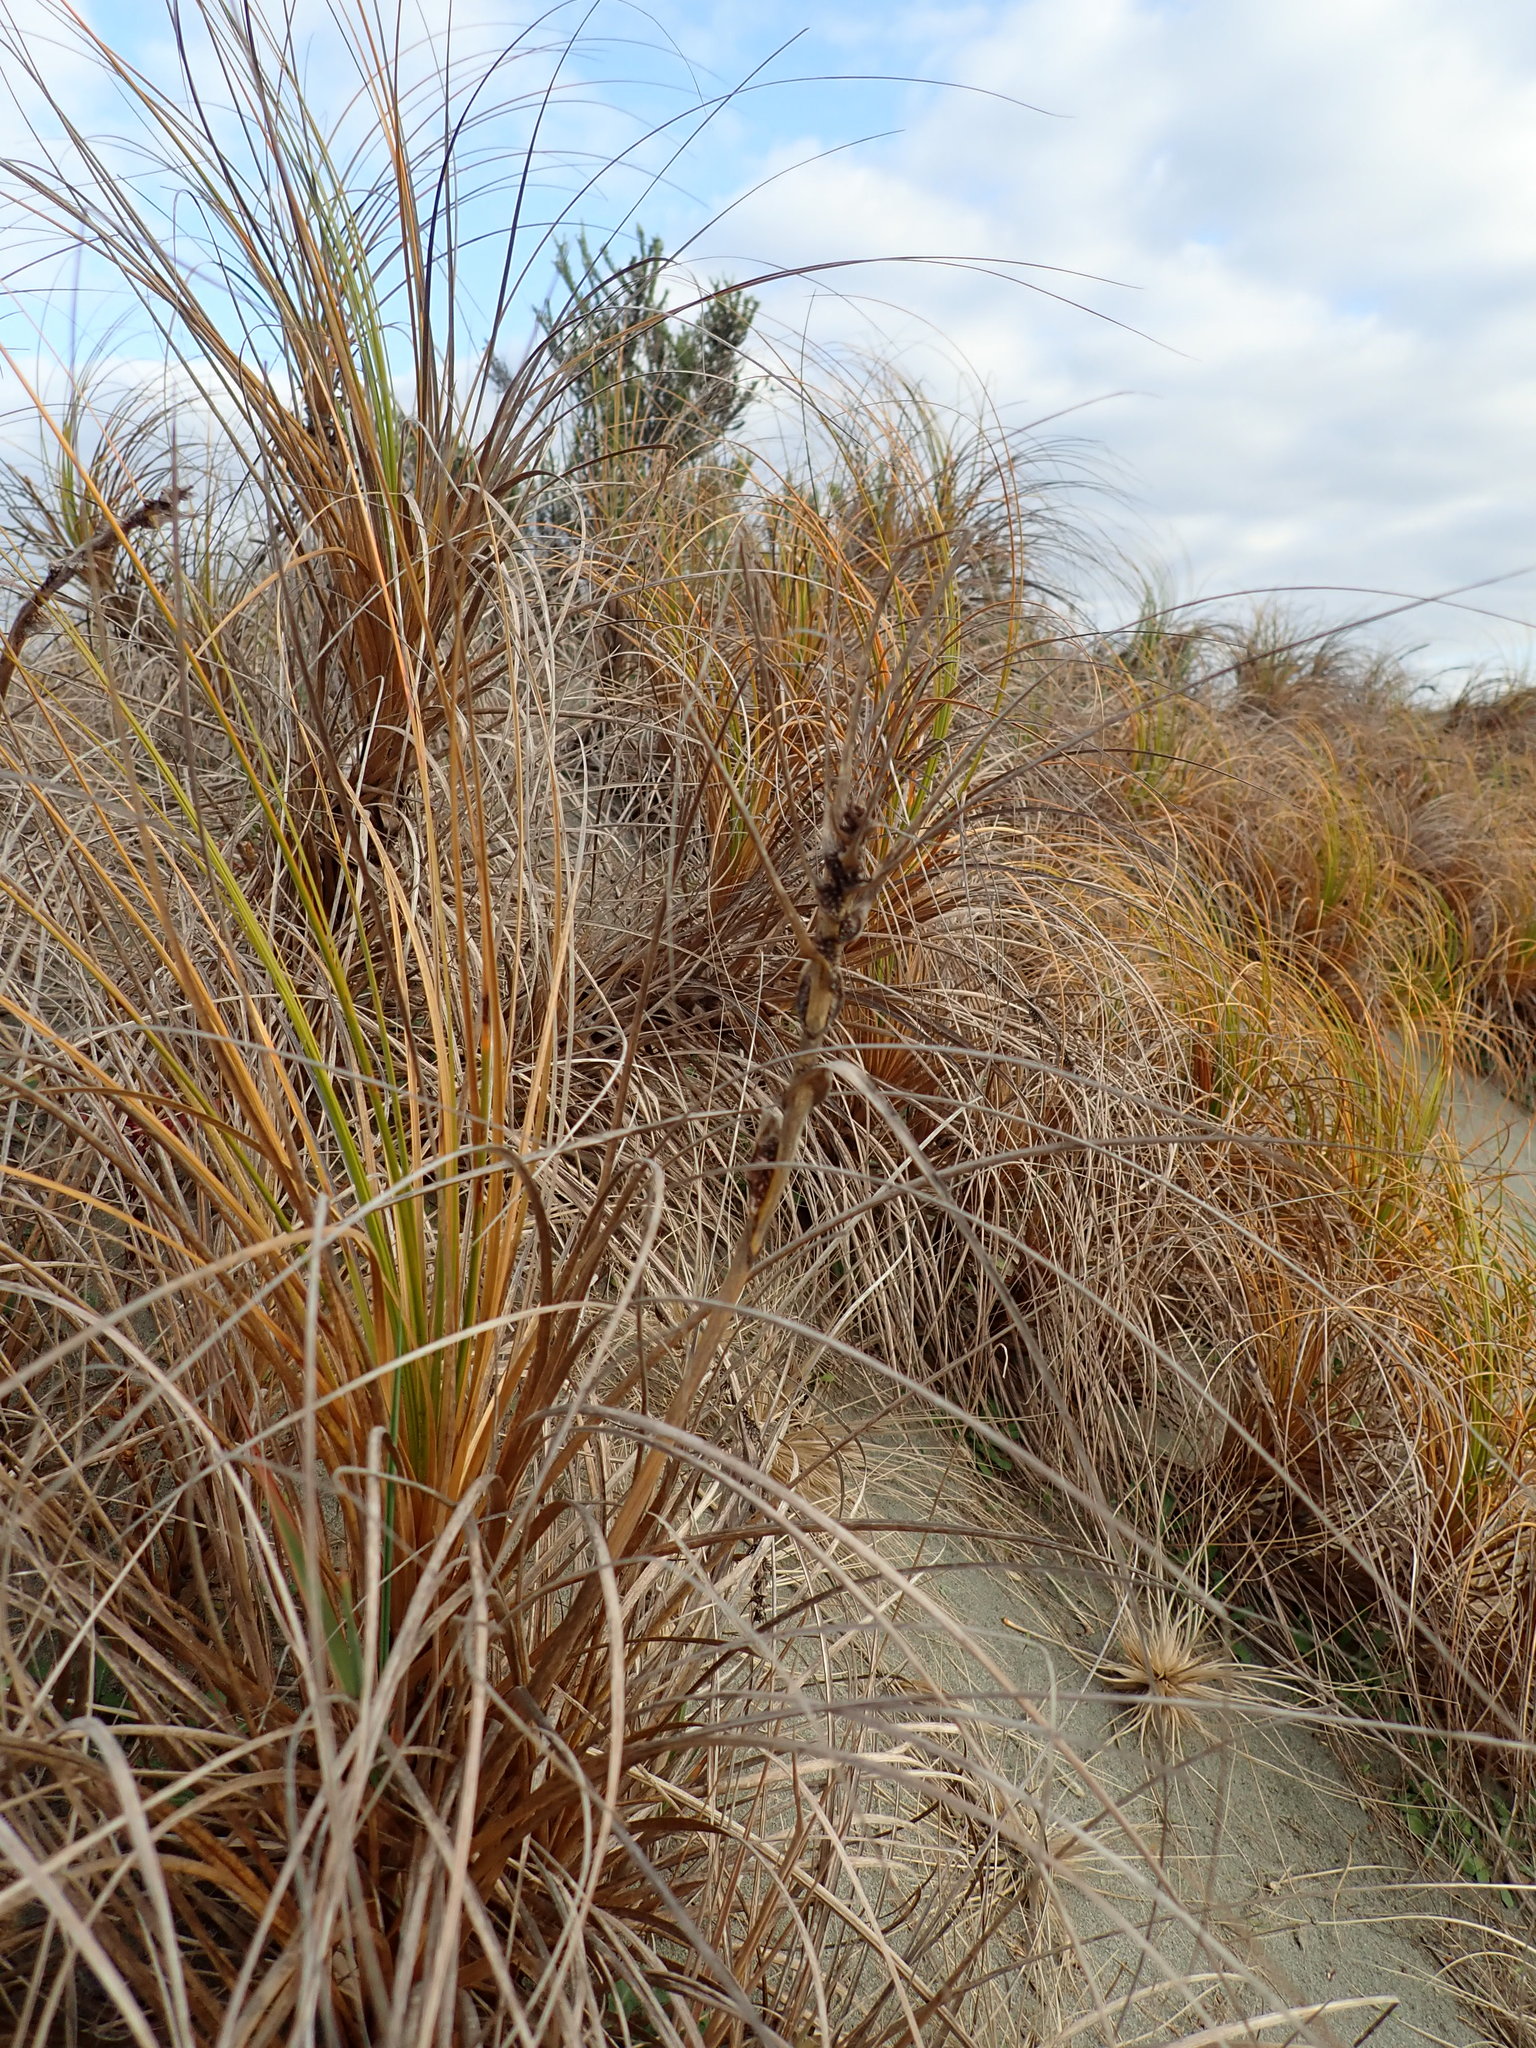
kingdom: Plantae
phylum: Tracheophyta
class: Liliopsida
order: Poales
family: Cyperaceae
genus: Ficinia
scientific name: Ficinia spiralis
